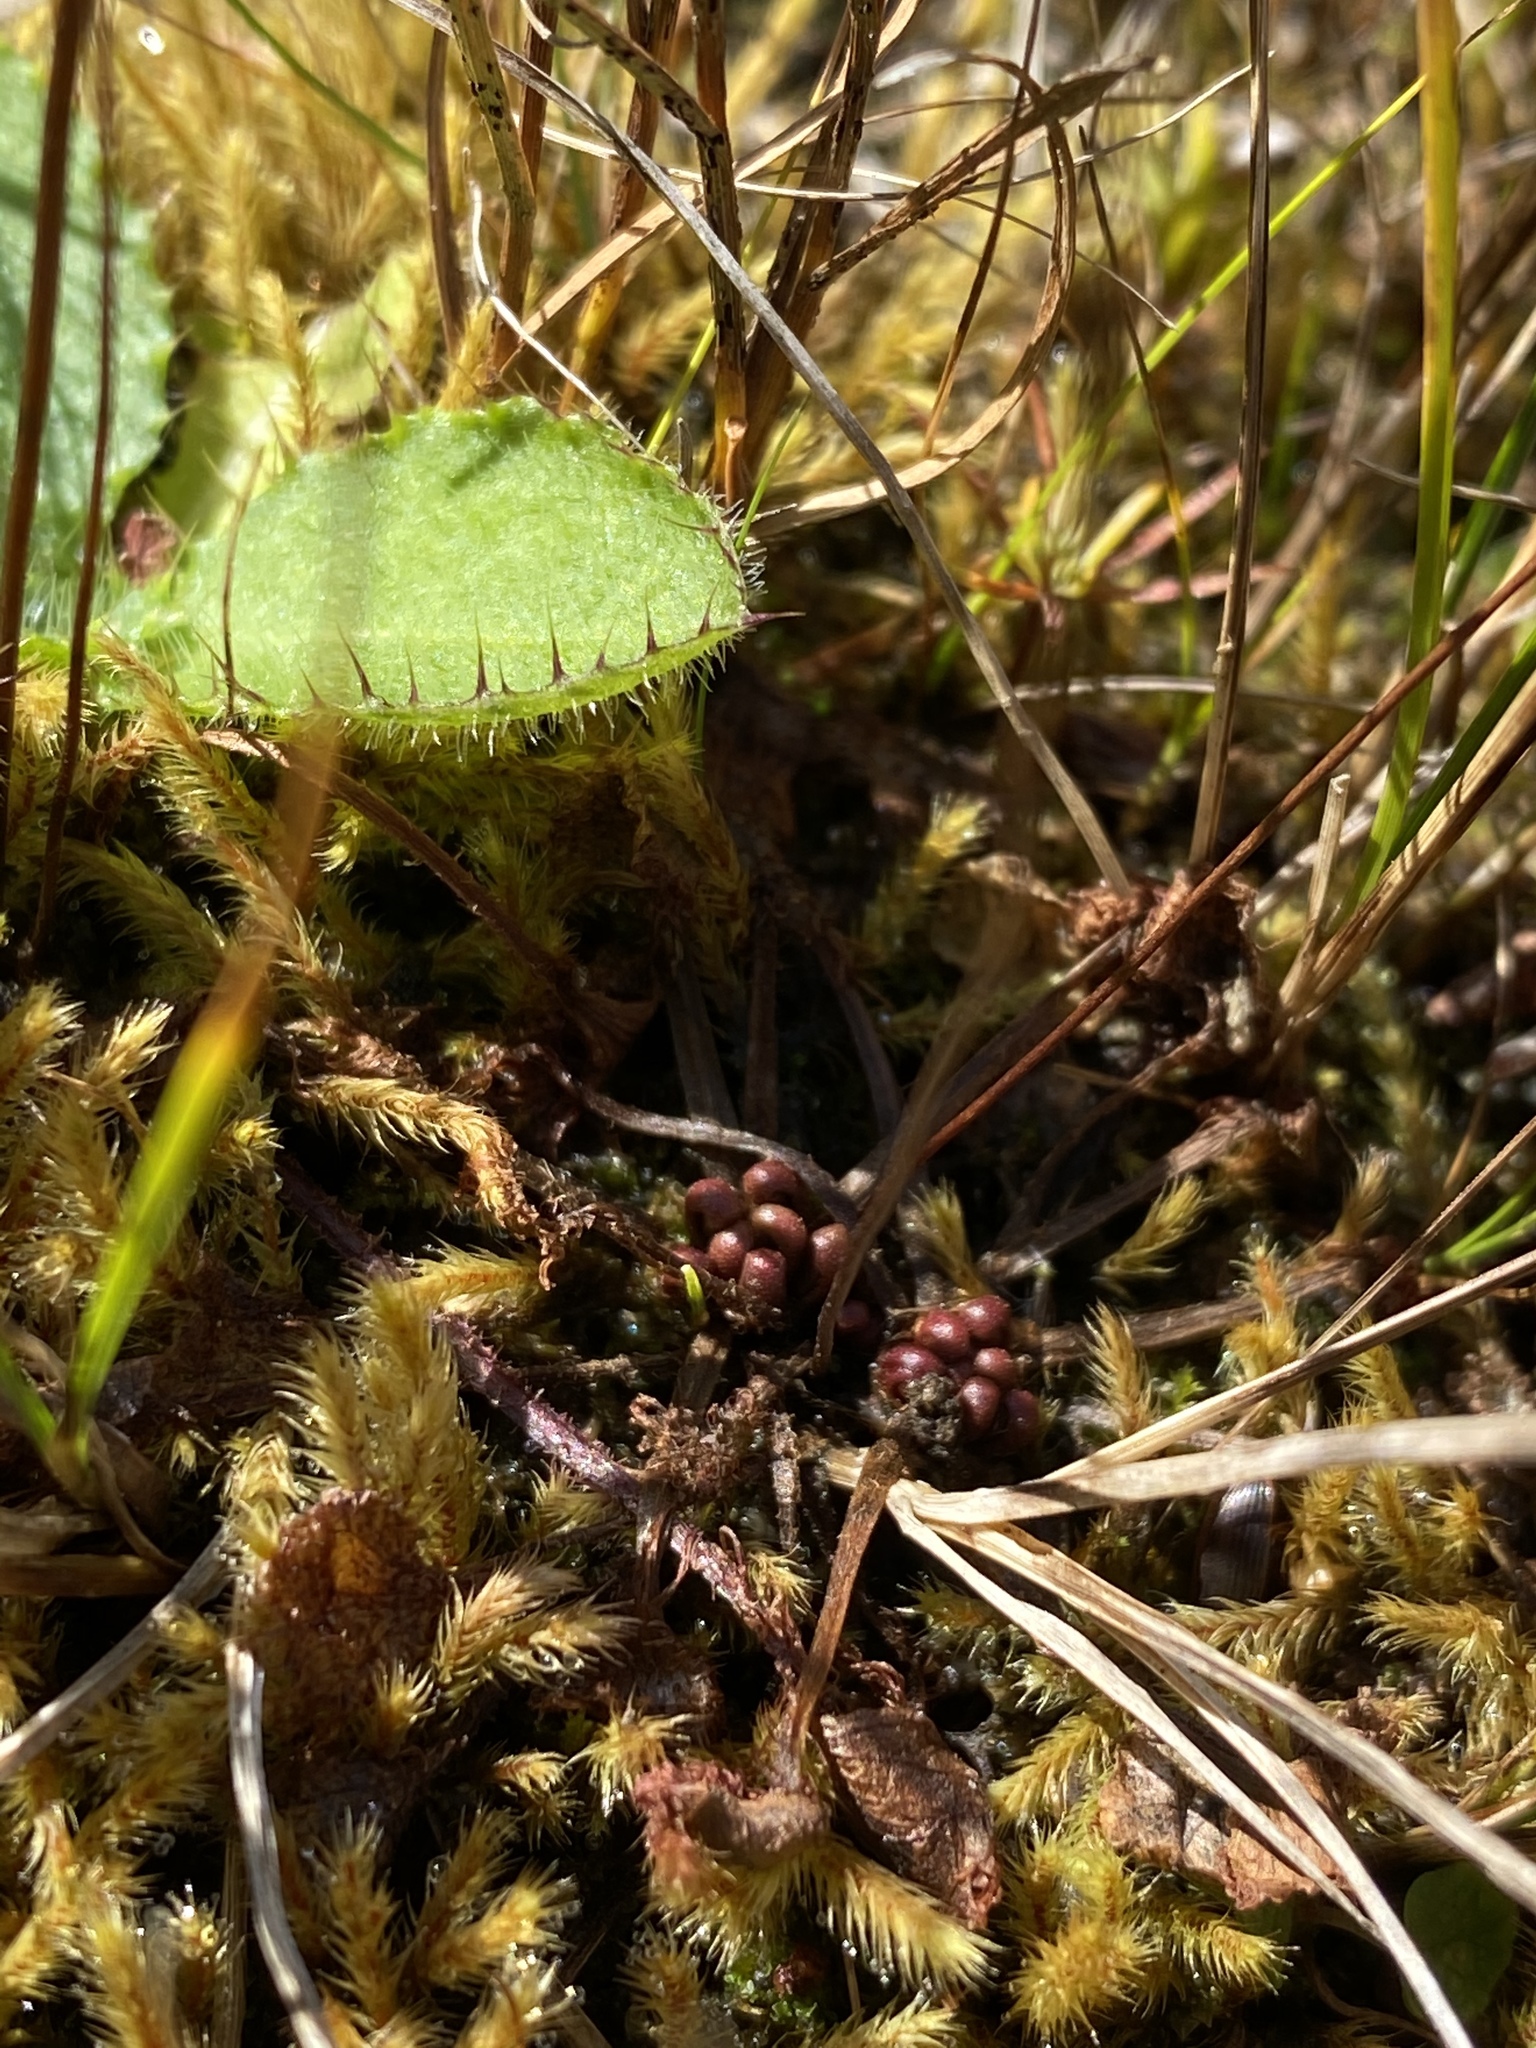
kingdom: Plantae
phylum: Tracheophyta
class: Magnoliopsida
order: Caryophyllales
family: Droseraceae
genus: Drosera
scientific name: Drosera rotundifolia
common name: Round-leaved sundew
